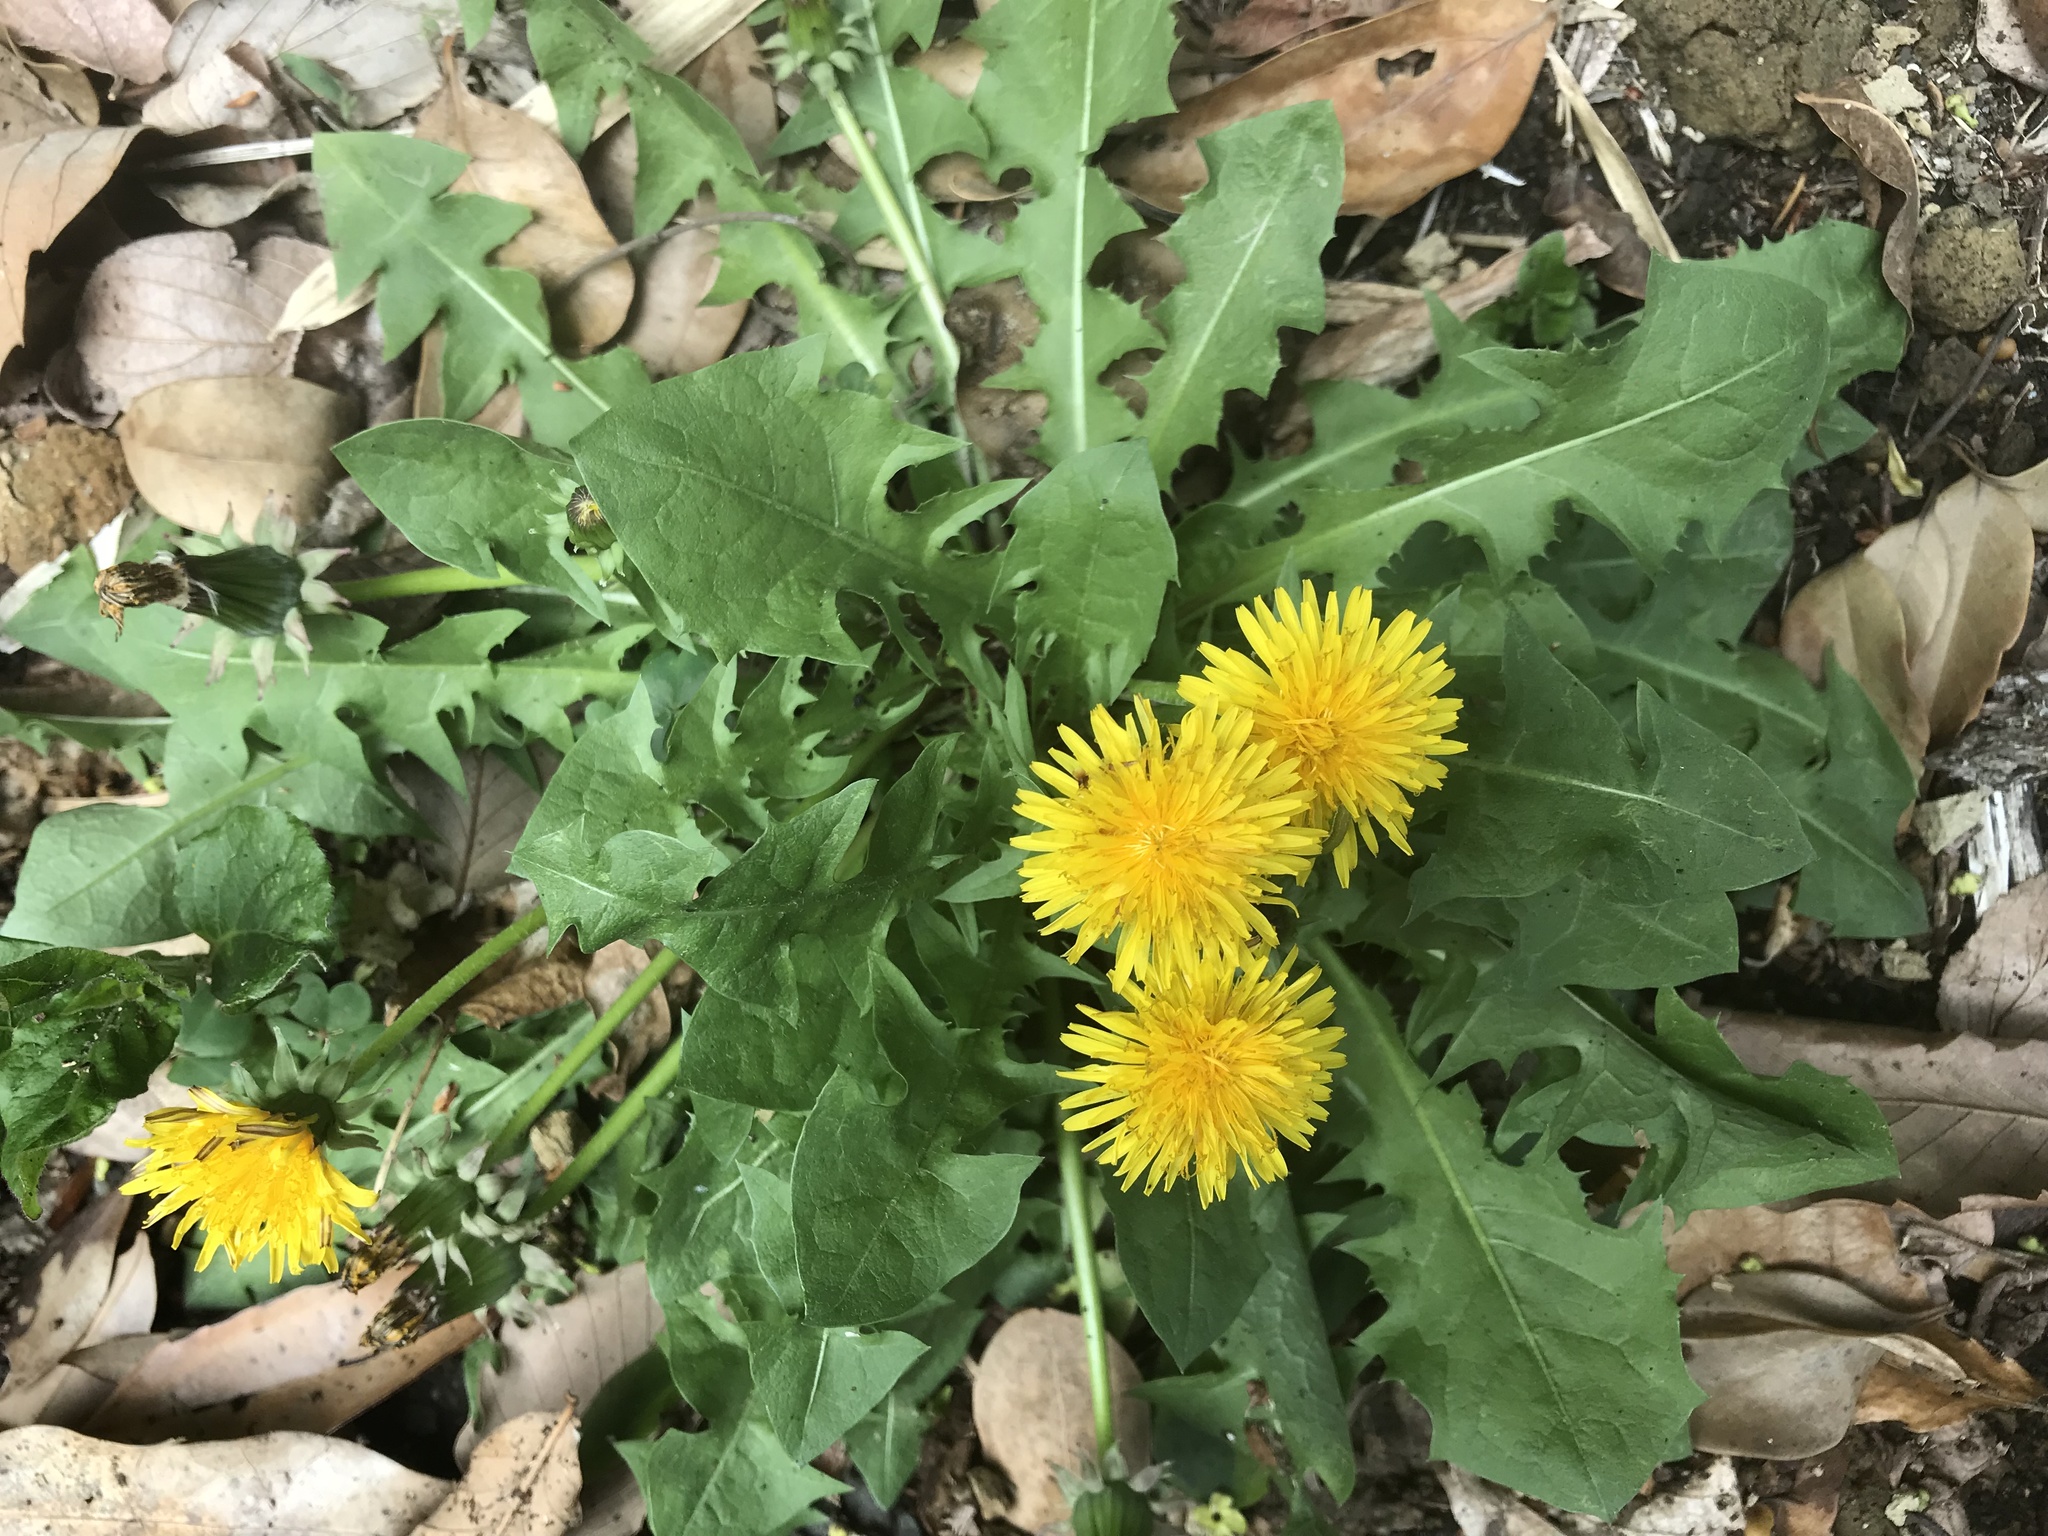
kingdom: Plantae
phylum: Tracheophyta
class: Magnoliopsida
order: Asterales
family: Asteraceae
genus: Taraxacum
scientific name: Taraxacum officinale
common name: Common dandelion
